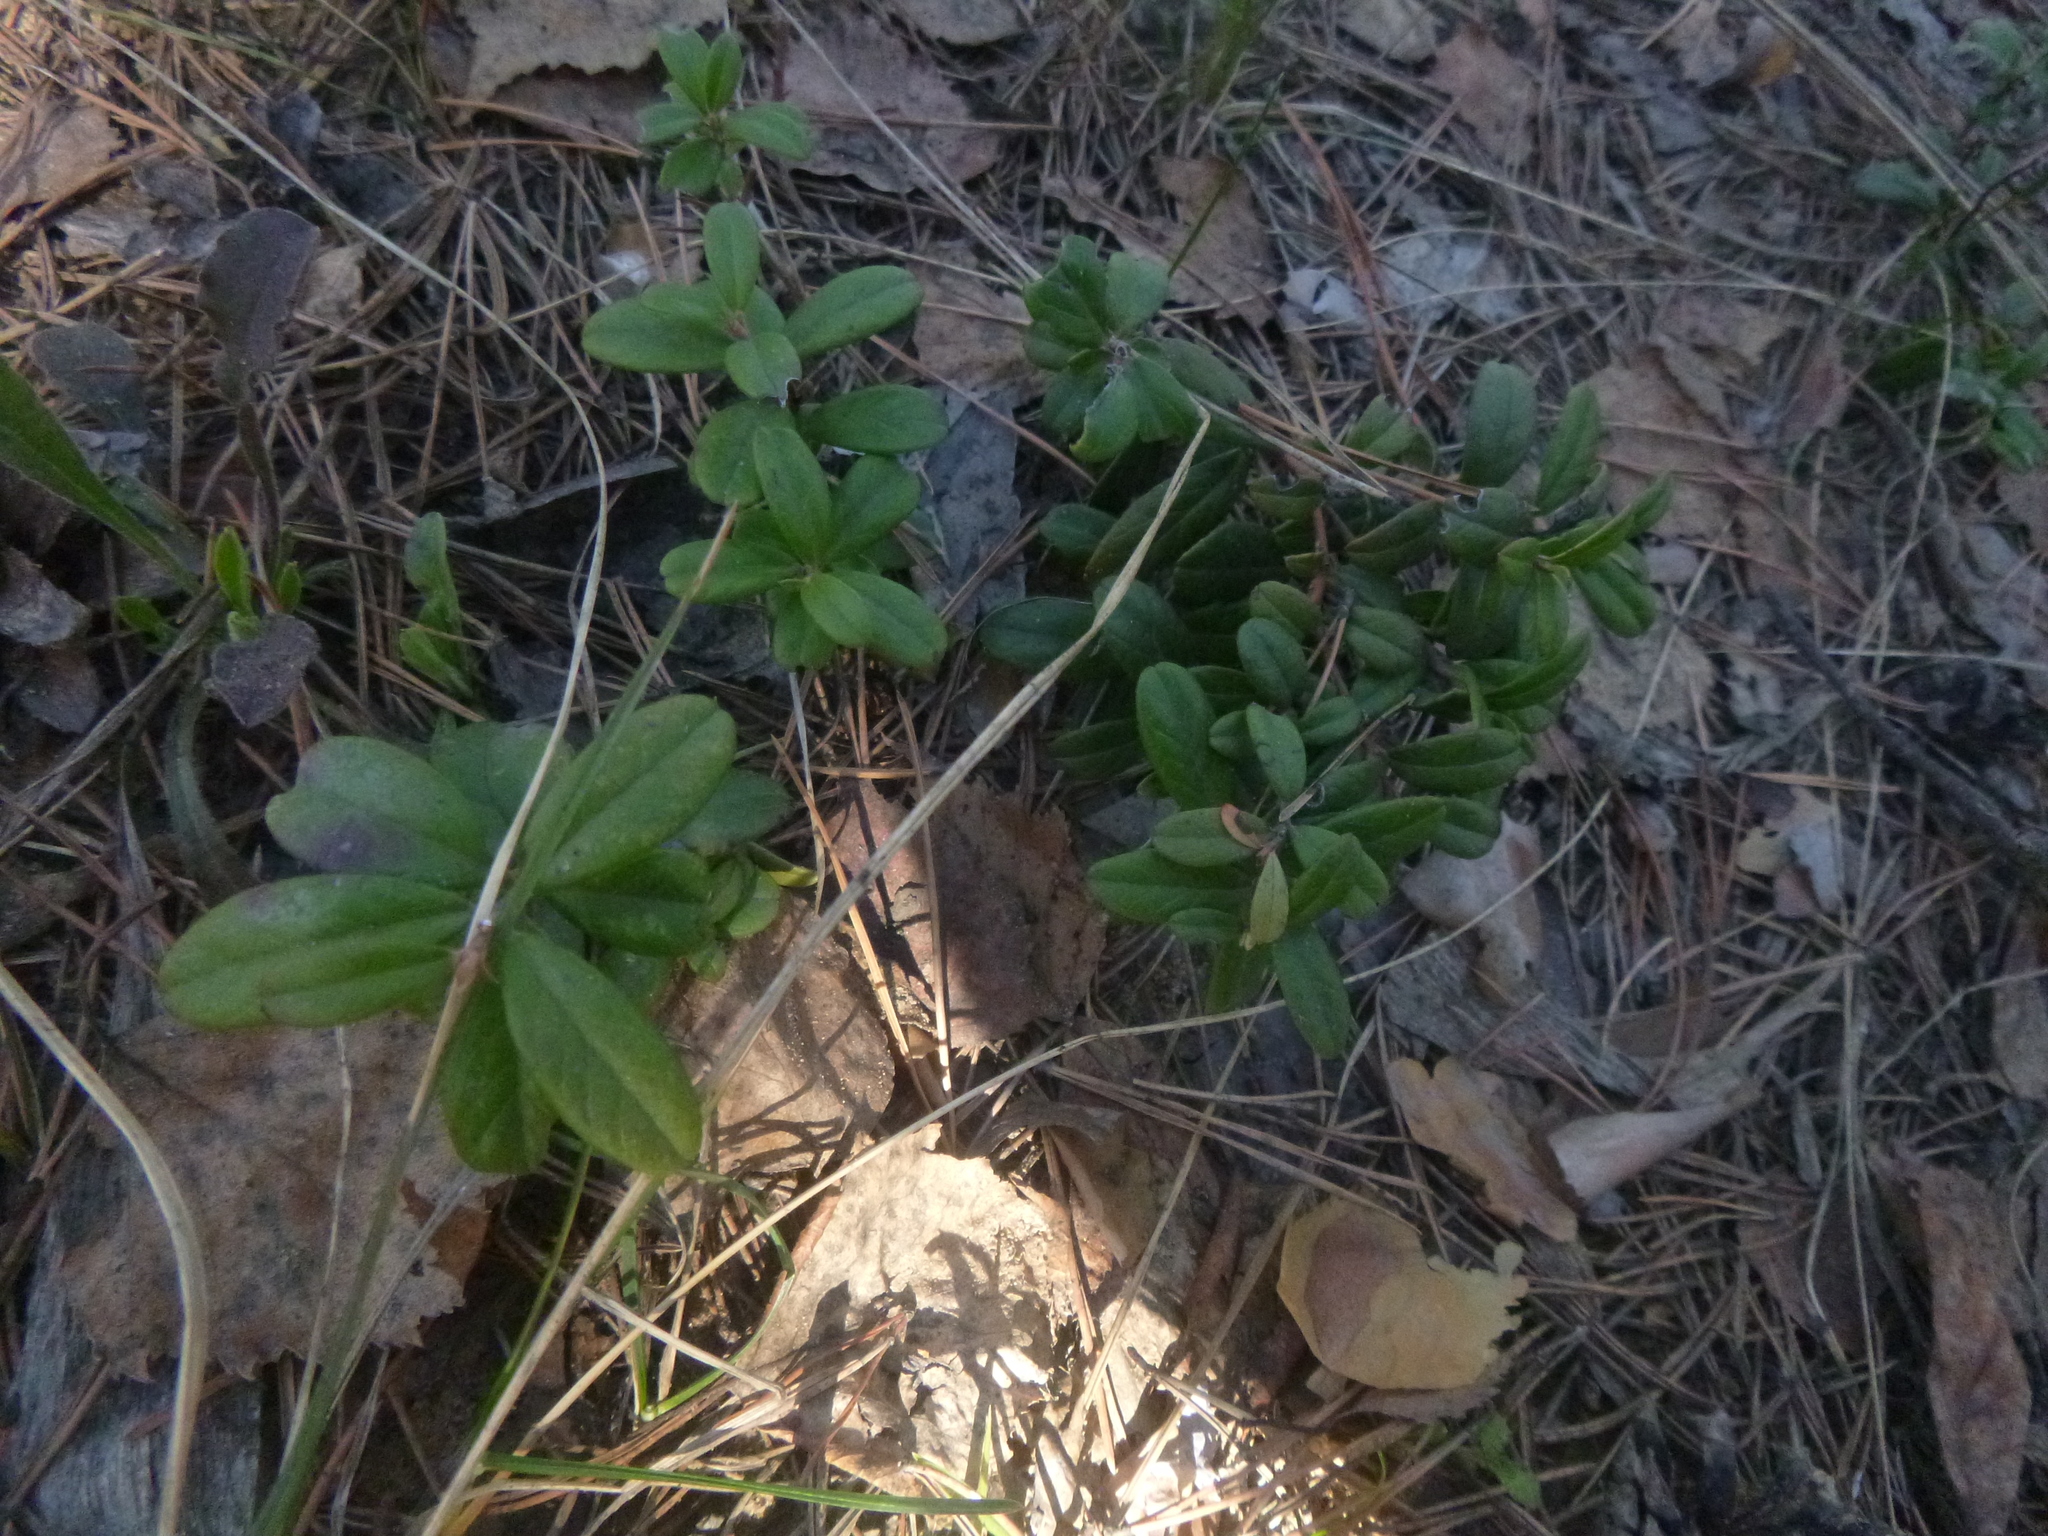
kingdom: Plantae
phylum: Tracheophyta
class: Magnoliopsida
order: Ericales
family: Ericaceae
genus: Vaccinium
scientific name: Vaccinium vitis-idaea
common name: Cowberry
